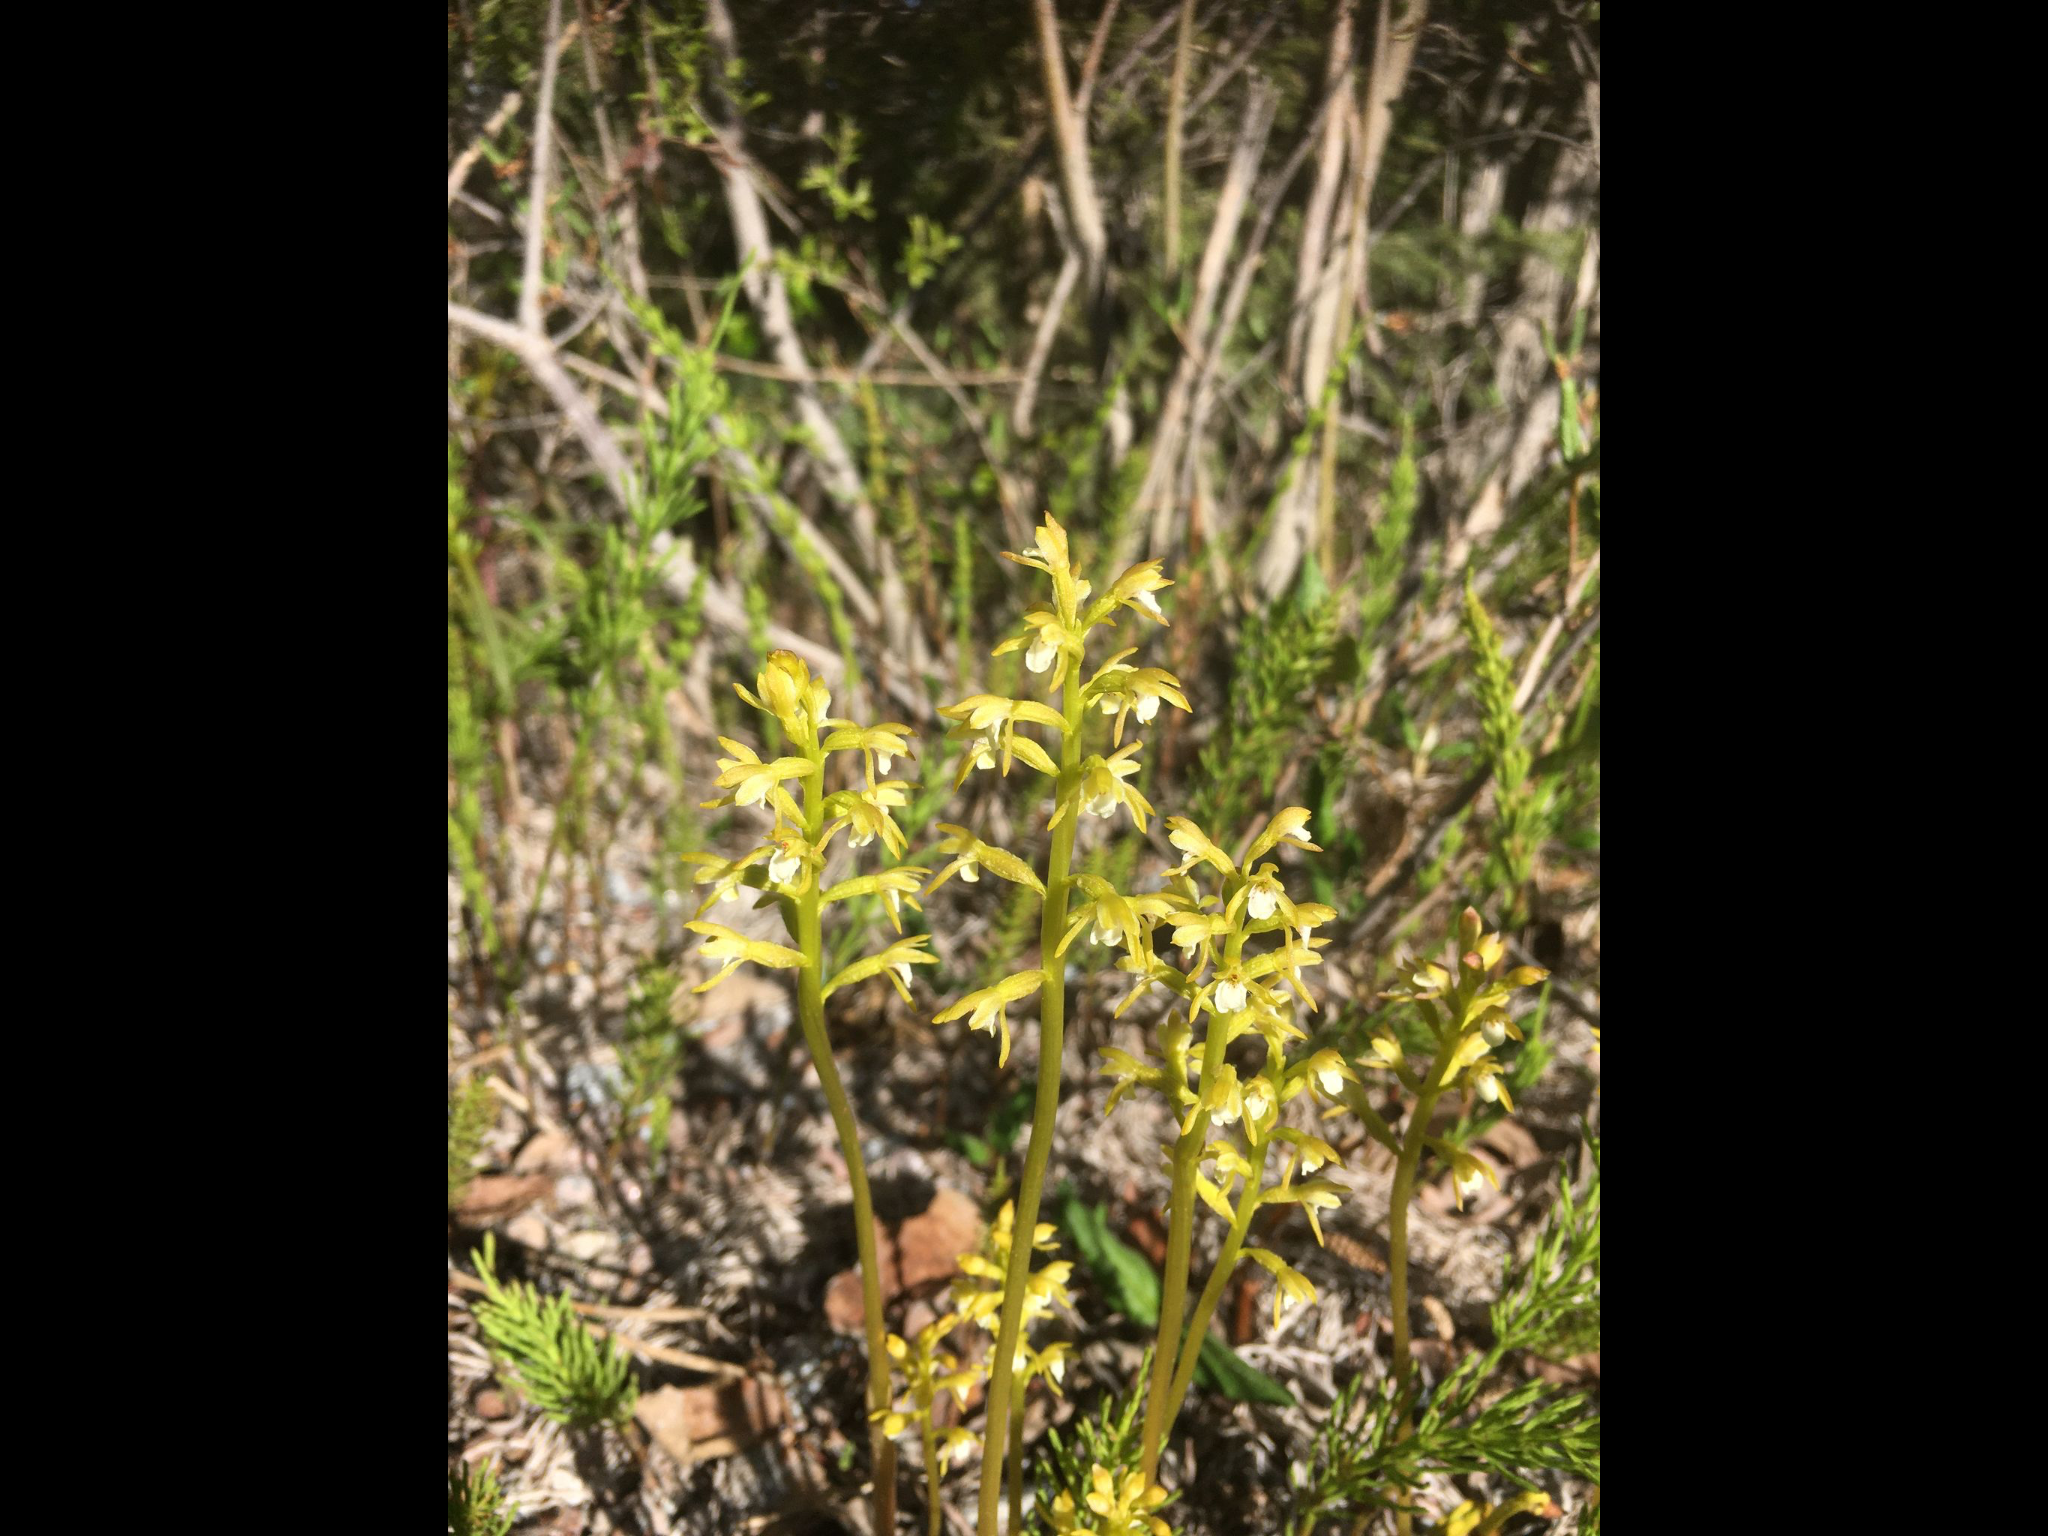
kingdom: Plantae
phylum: Tracheophyta
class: Liliopsida
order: Asparagales
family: Orchidaceae
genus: Corallorhiza
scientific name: Corallorhiza trifida
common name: Yellow coralroot
